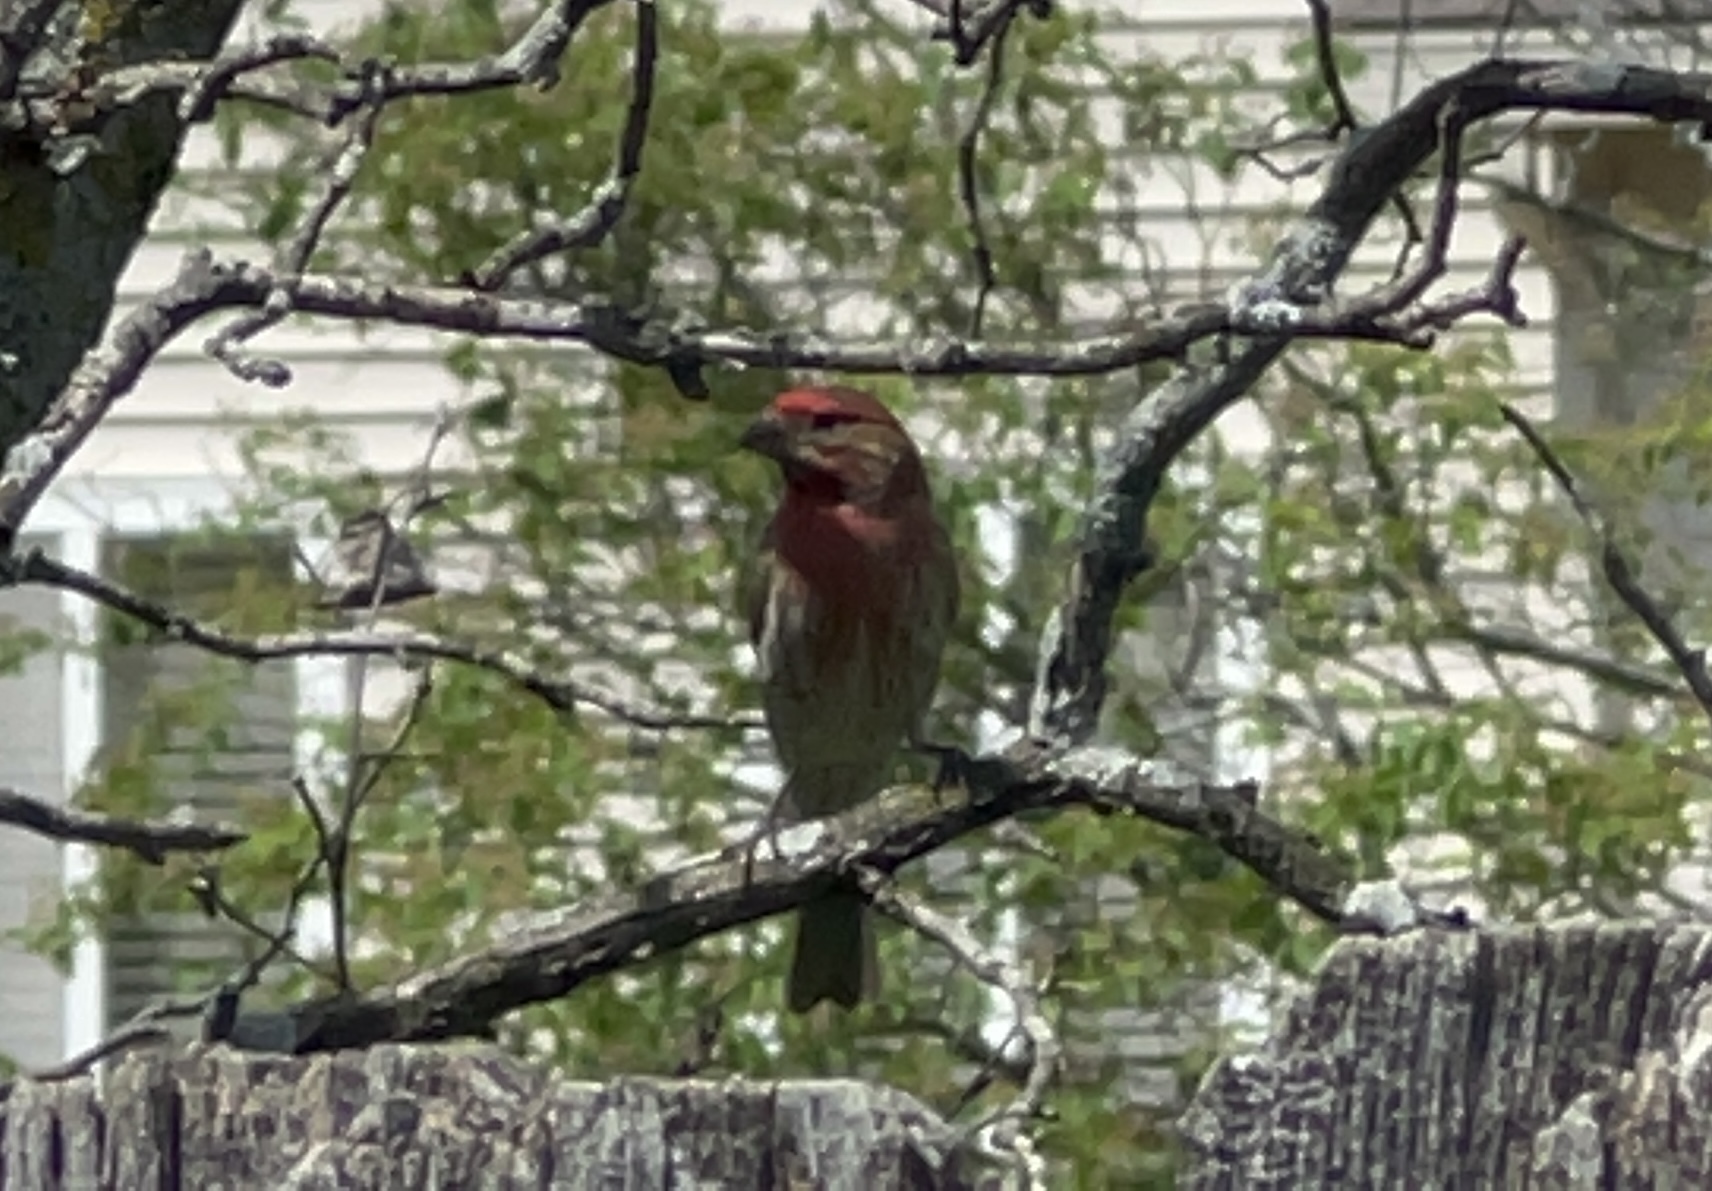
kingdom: Animalia
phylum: Chordata
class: Aves
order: Passeriformes
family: Fringillidae
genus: Haemorhous
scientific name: Haemorhous mexicanus
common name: House finch
